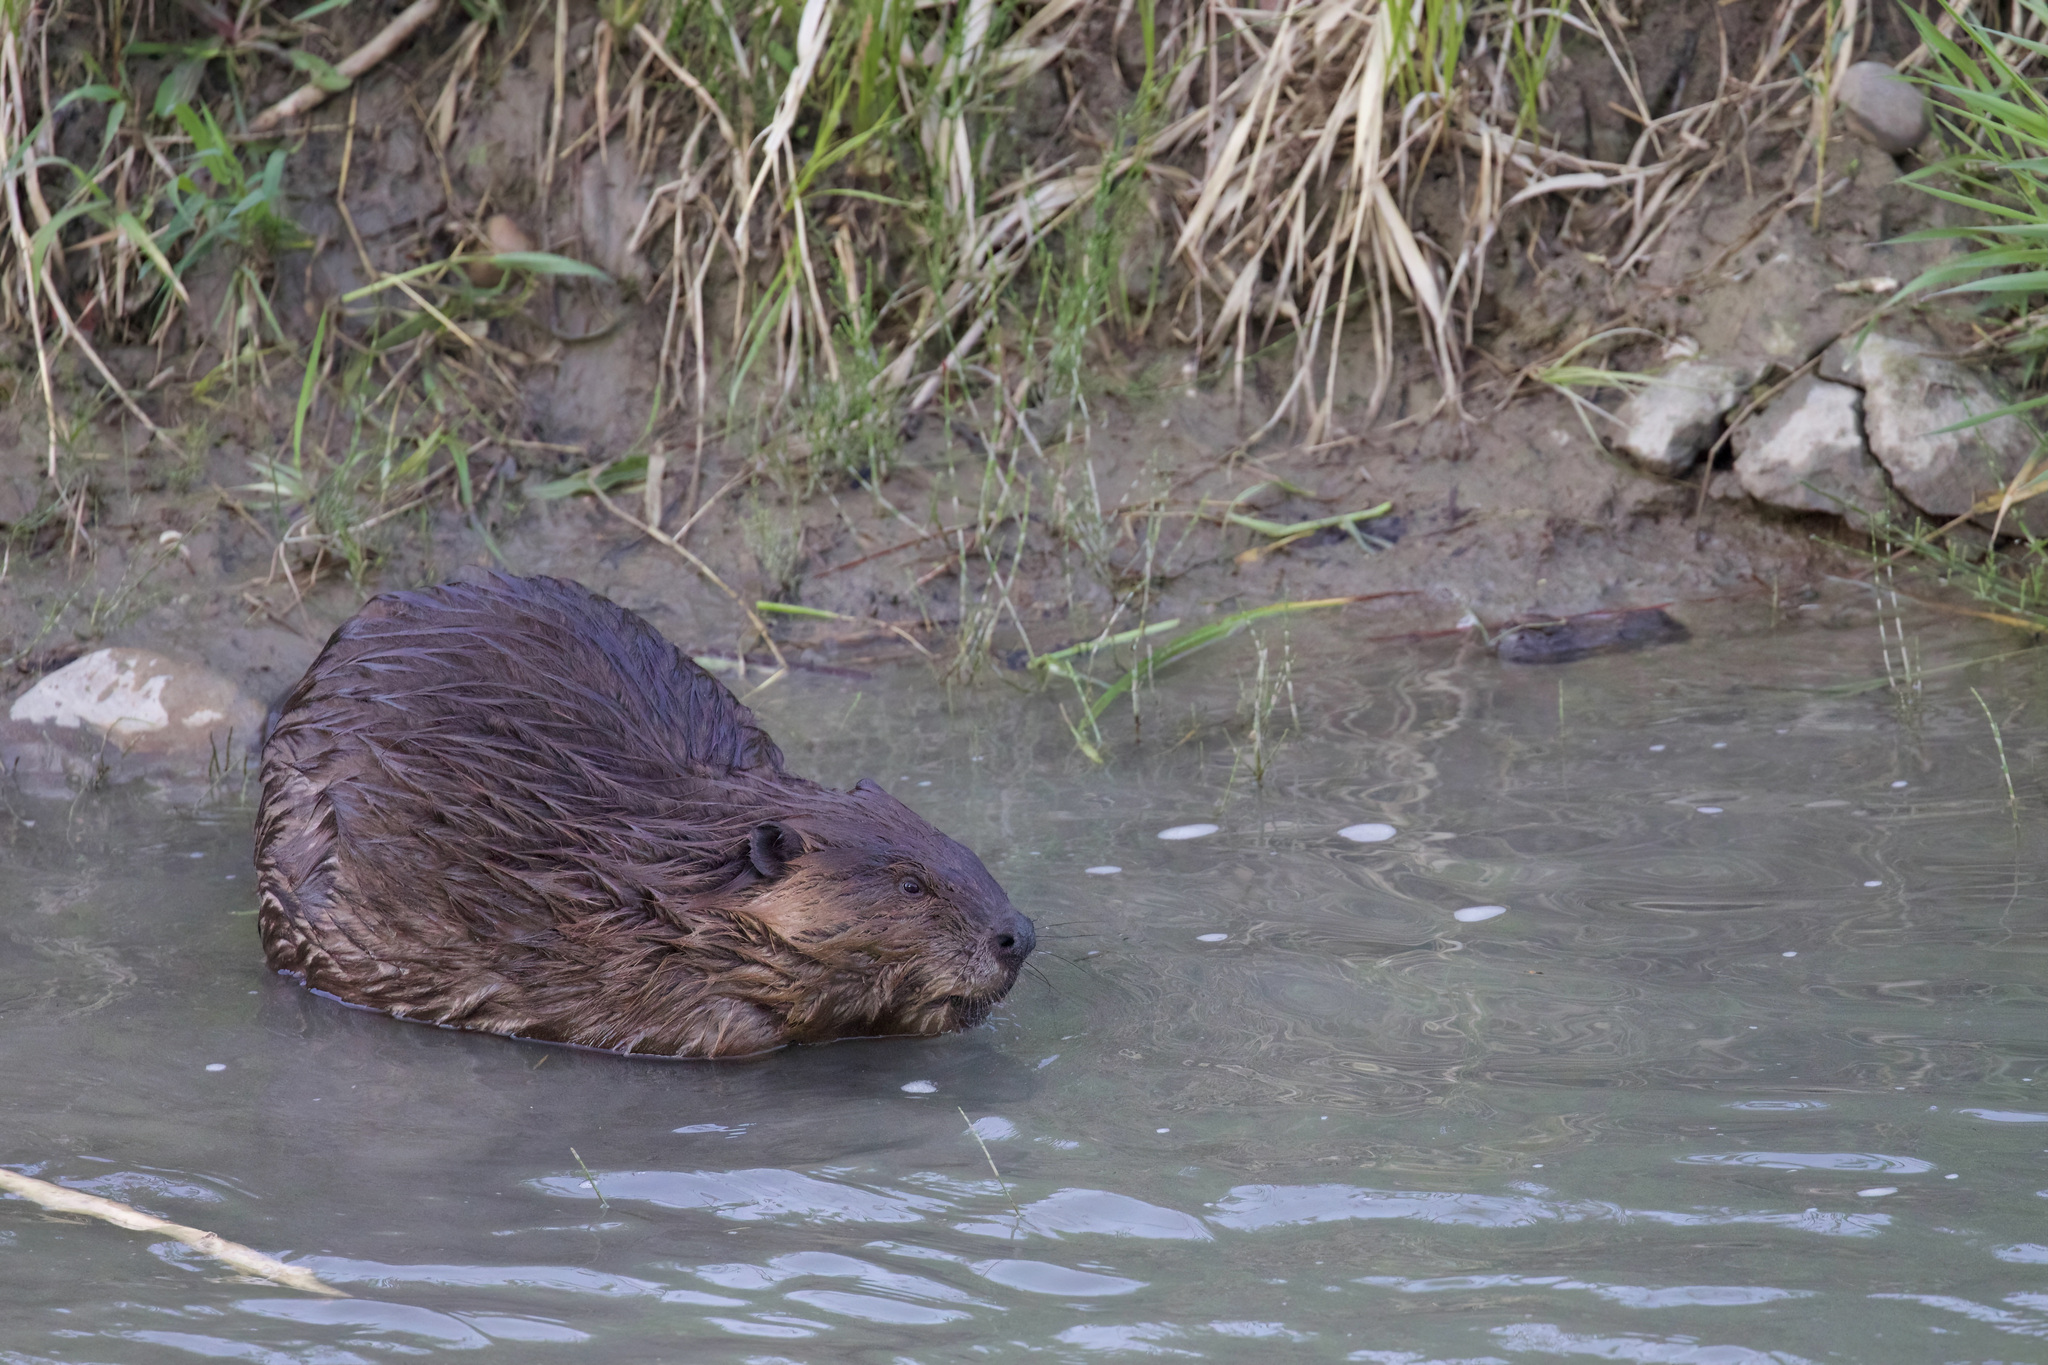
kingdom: Animalia
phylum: Chordata
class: Mammalia
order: Rodentia
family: Castoridae
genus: Castor
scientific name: Castor canadensis
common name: American beaver
